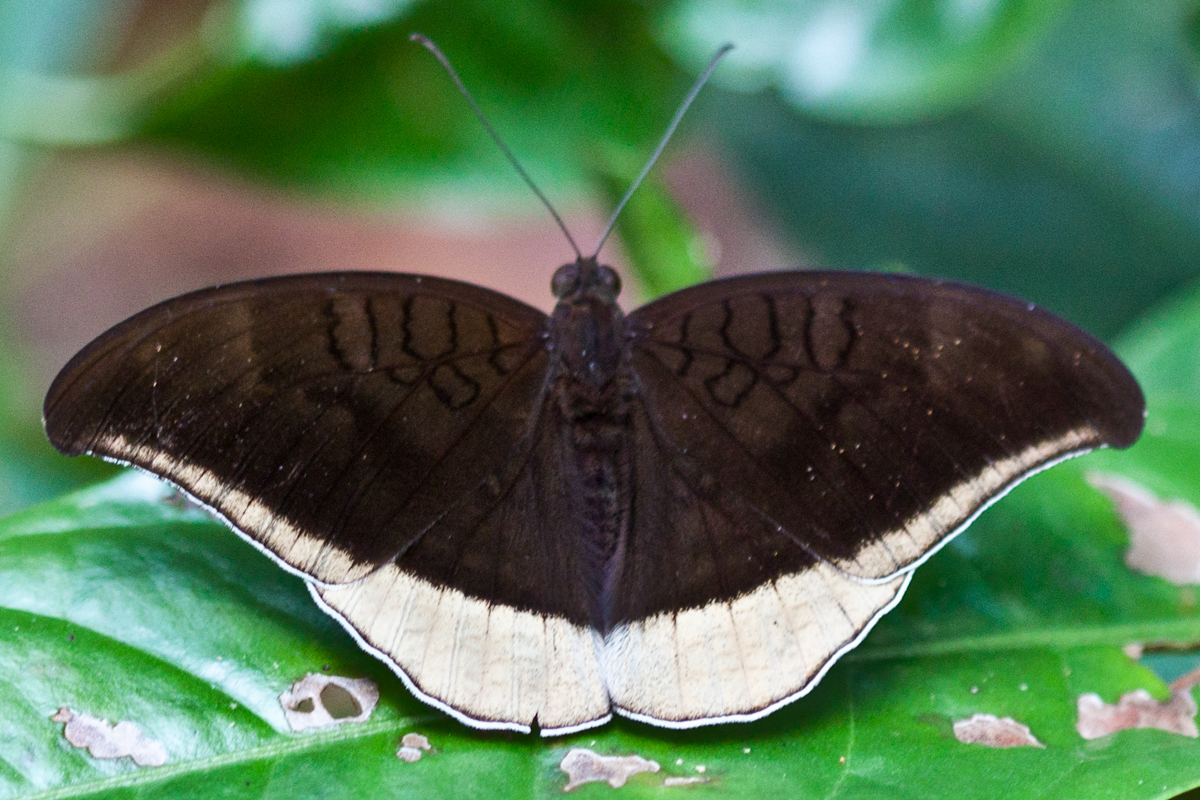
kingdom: Animalia
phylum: Arthropoda
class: Insecta
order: Lepidoptera
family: Nymphalidae
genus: Tanaecia
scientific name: Tanaecia lepidea
